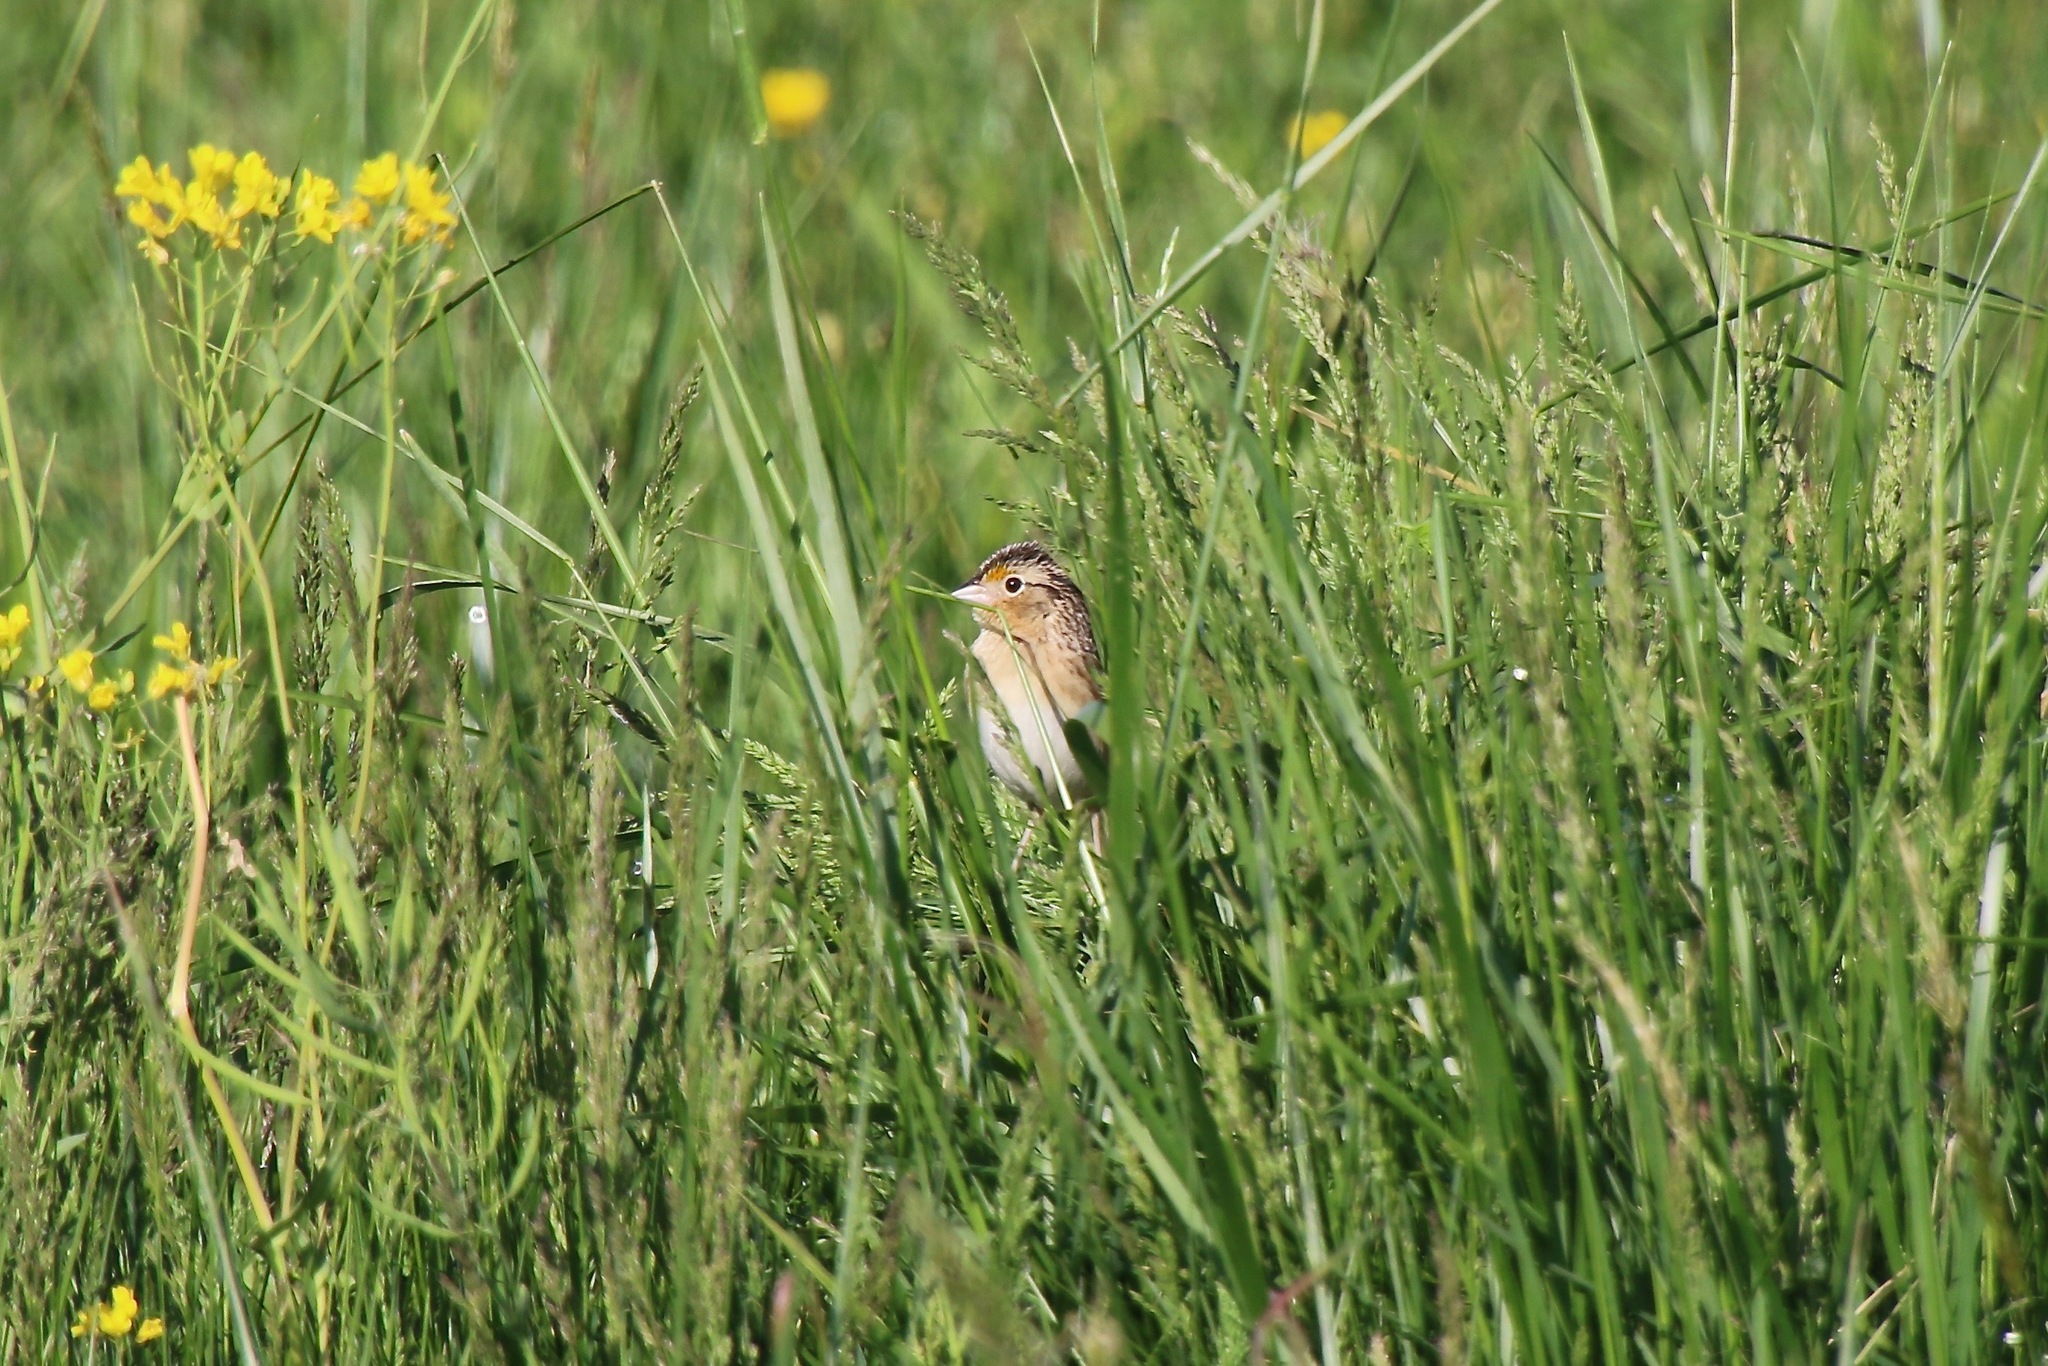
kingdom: Animalia
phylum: Chordata
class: Aves
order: Passeriformes
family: Passerellidae
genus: Ammodramus
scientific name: Ammodramus savannarum
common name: Grasshopper sparrow
